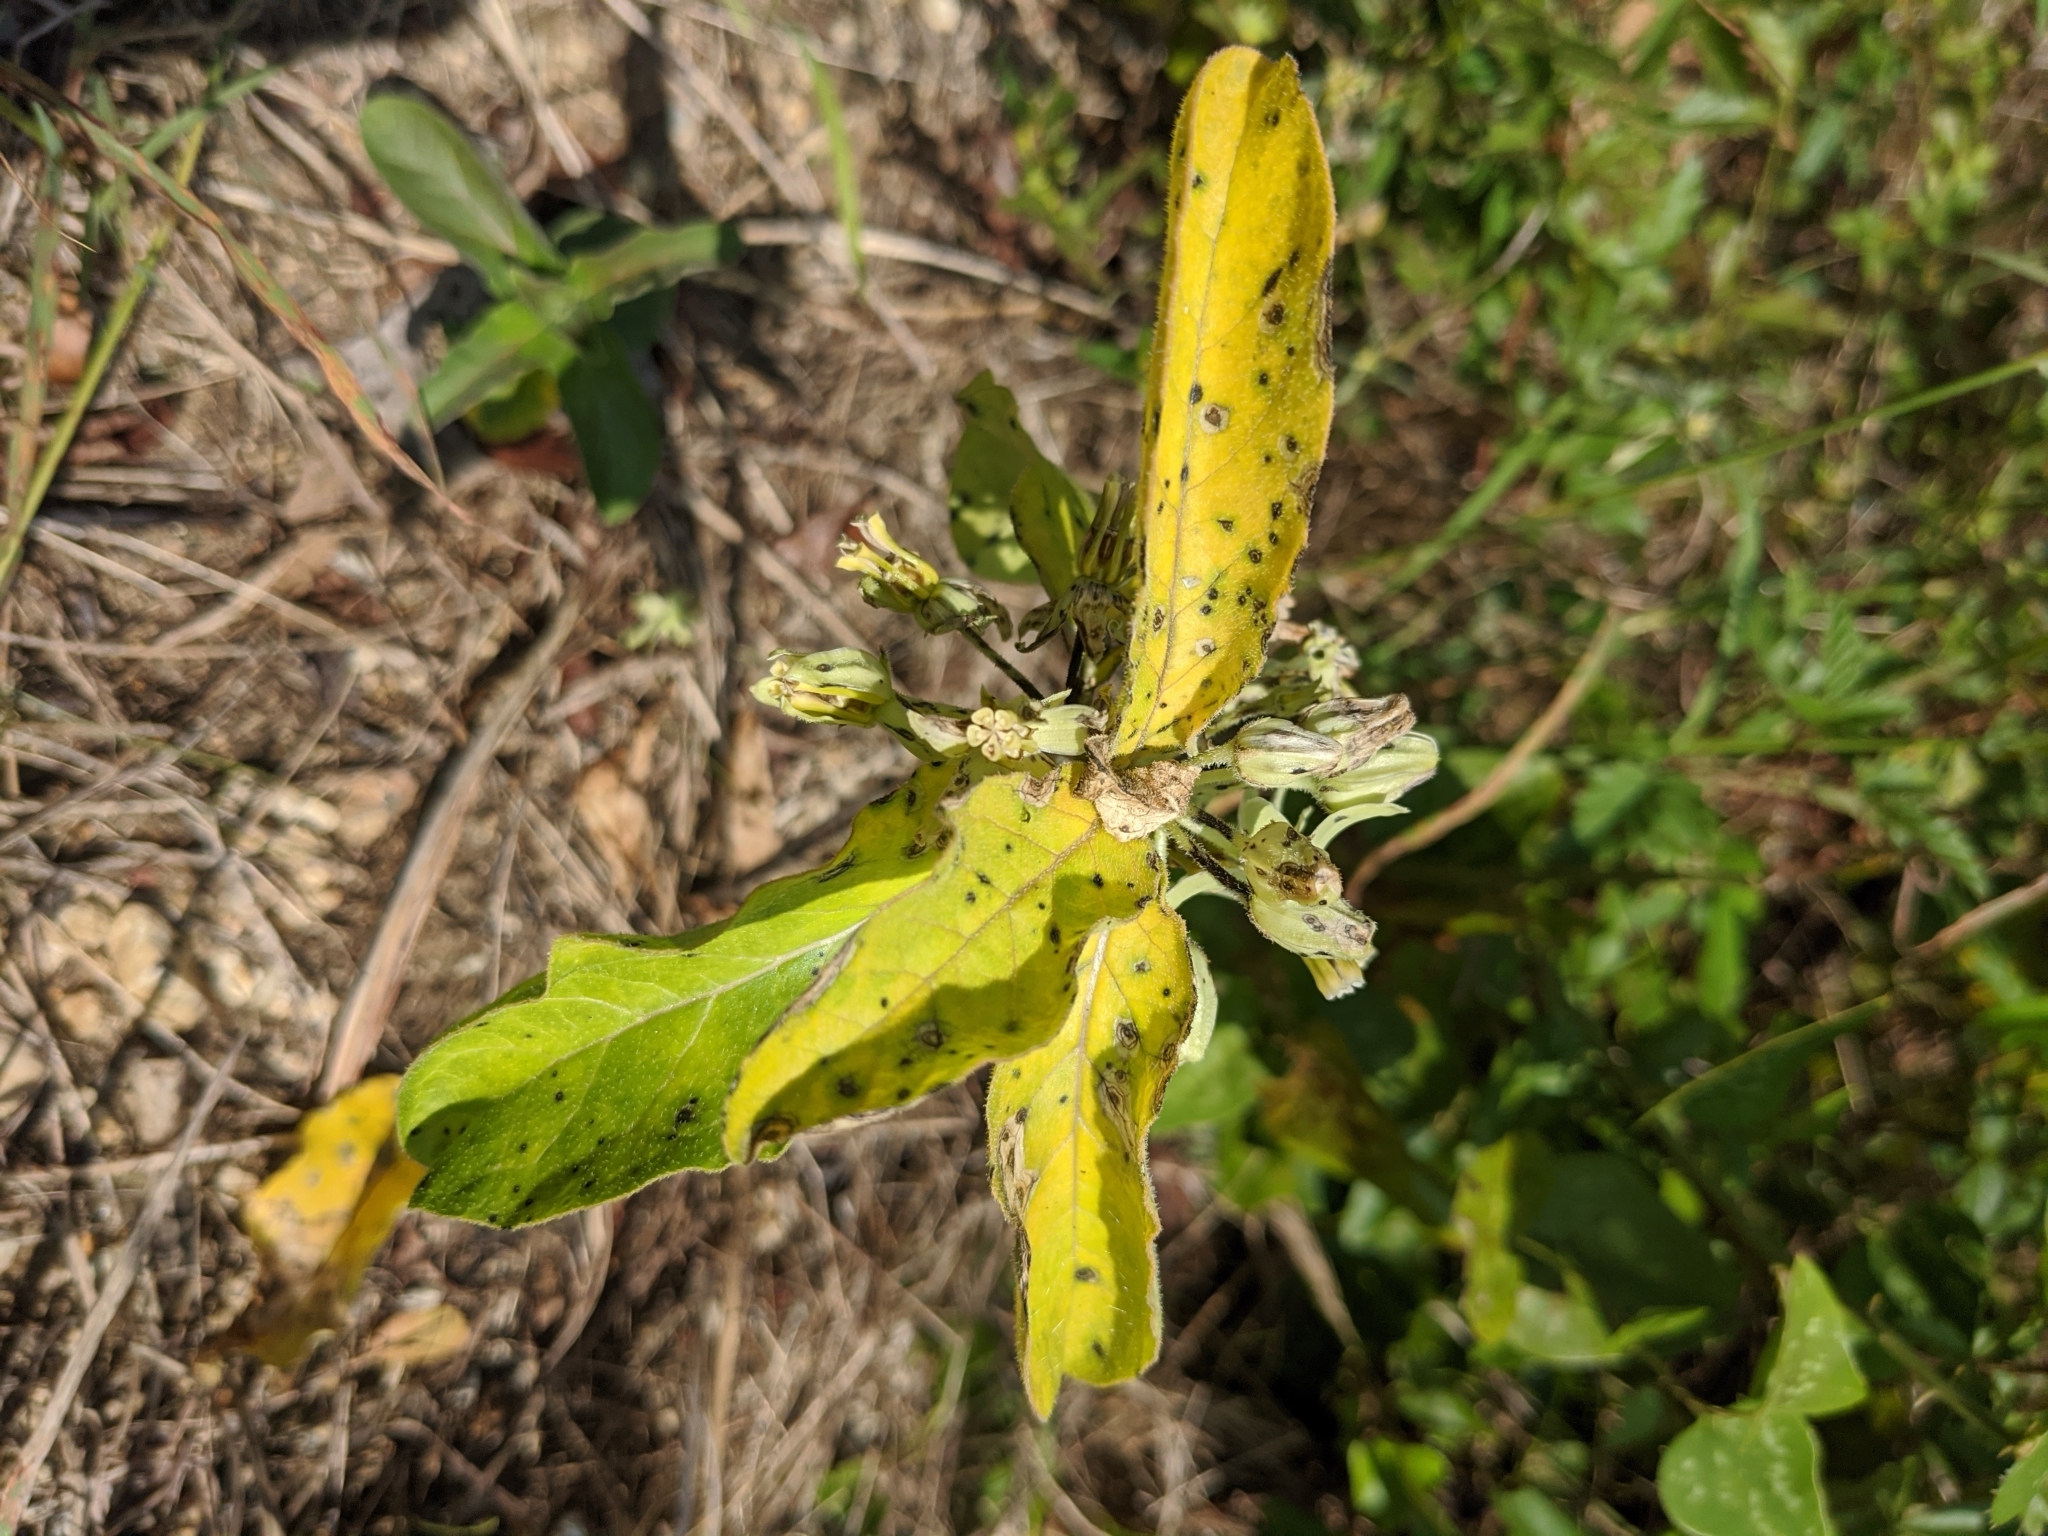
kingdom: Plantae
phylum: Tracheophyta
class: Magnoliopsida
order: Gentianales
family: Apocynaceae
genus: Asclepias
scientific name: Asclepias oenotheroides
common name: Zizotes milkweed
